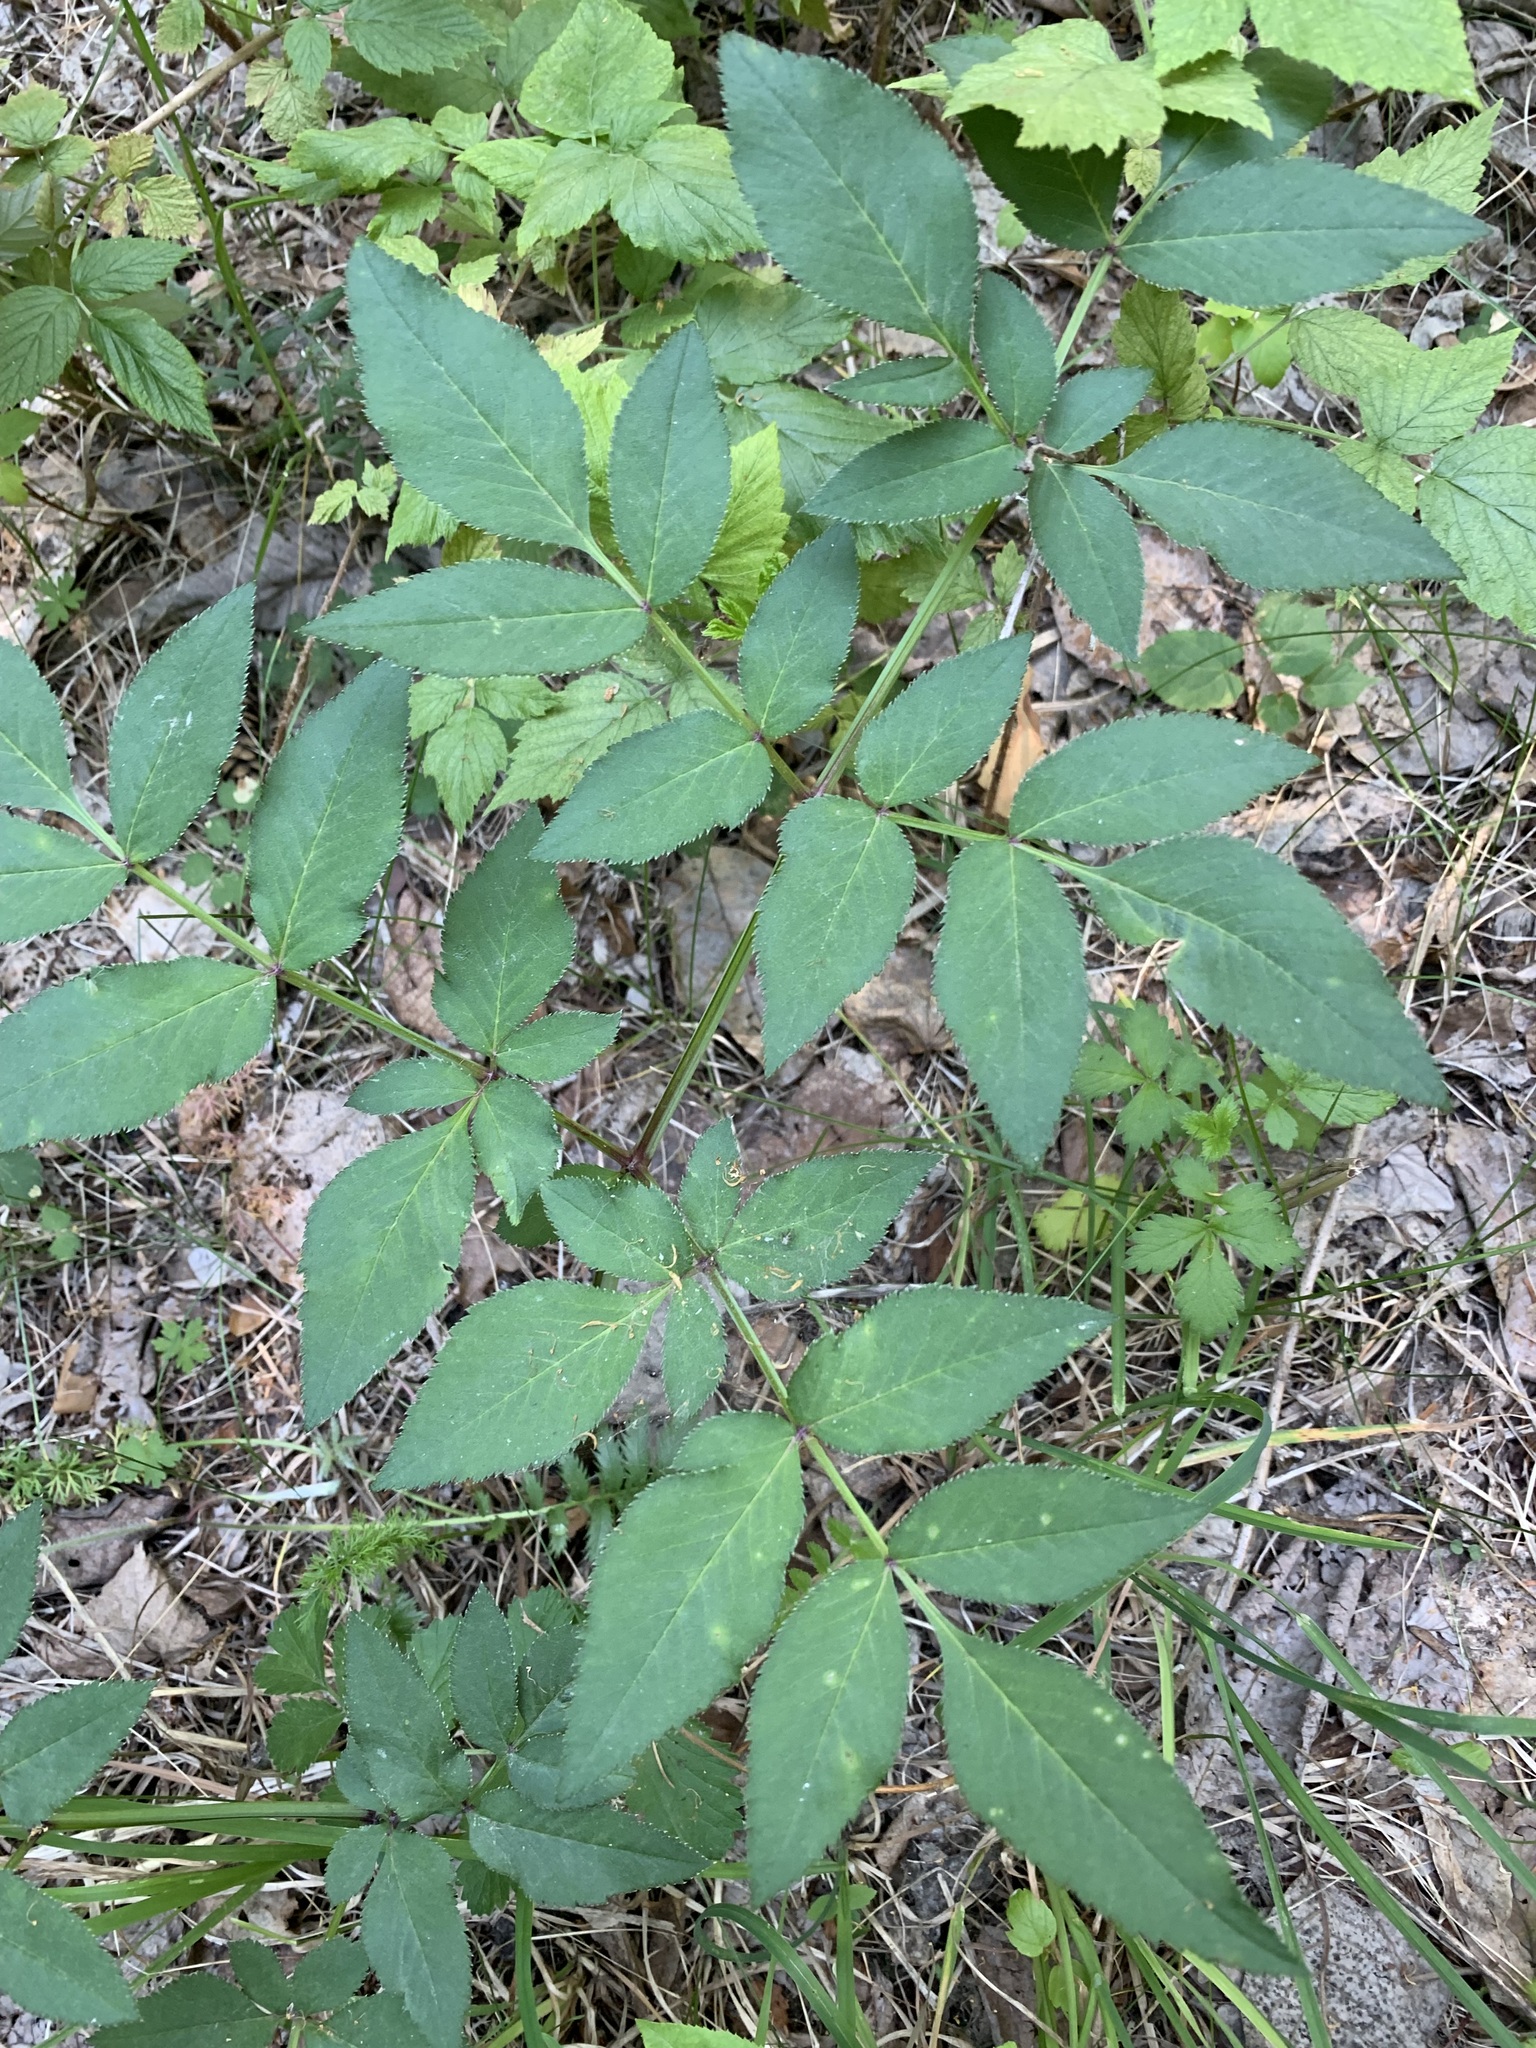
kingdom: Plantae
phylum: Tracheophyta
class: Magnoliopsida
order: Apiales
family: Apiaceae
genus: Angelica
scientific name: Angelica sylvestris
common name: Wild angelica
